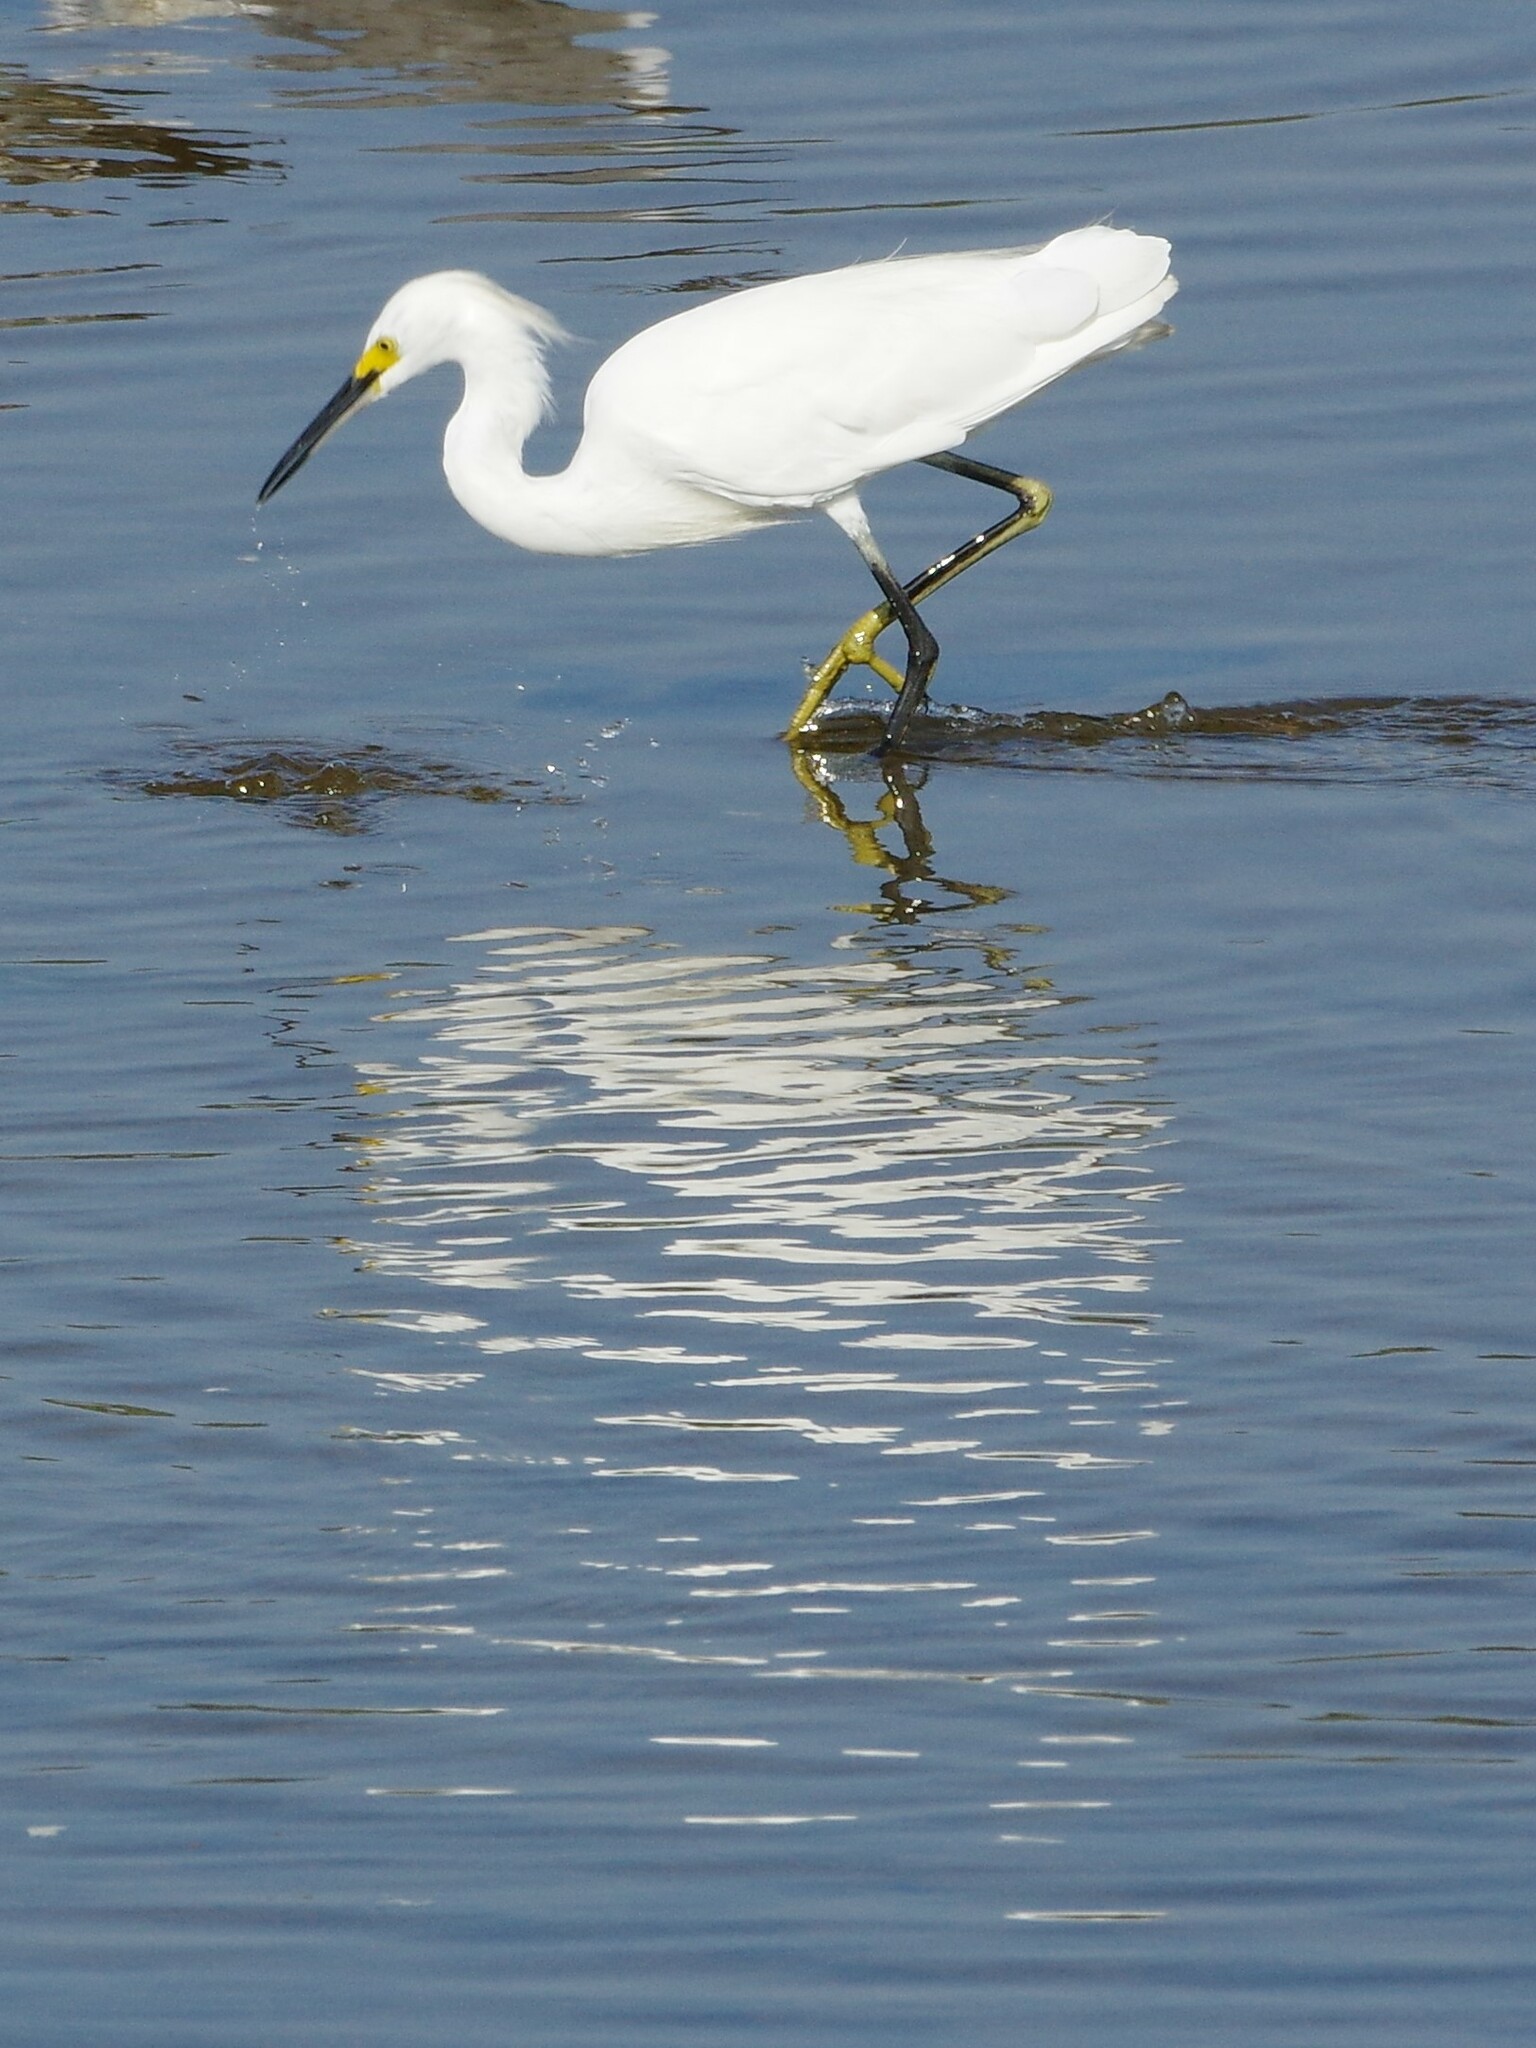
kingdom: Animalia
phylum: Chordata
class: Aves
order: Pelecaniformes
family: Ardeidae
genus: Egretta
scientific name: Egretta thula
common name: Snowy egret
